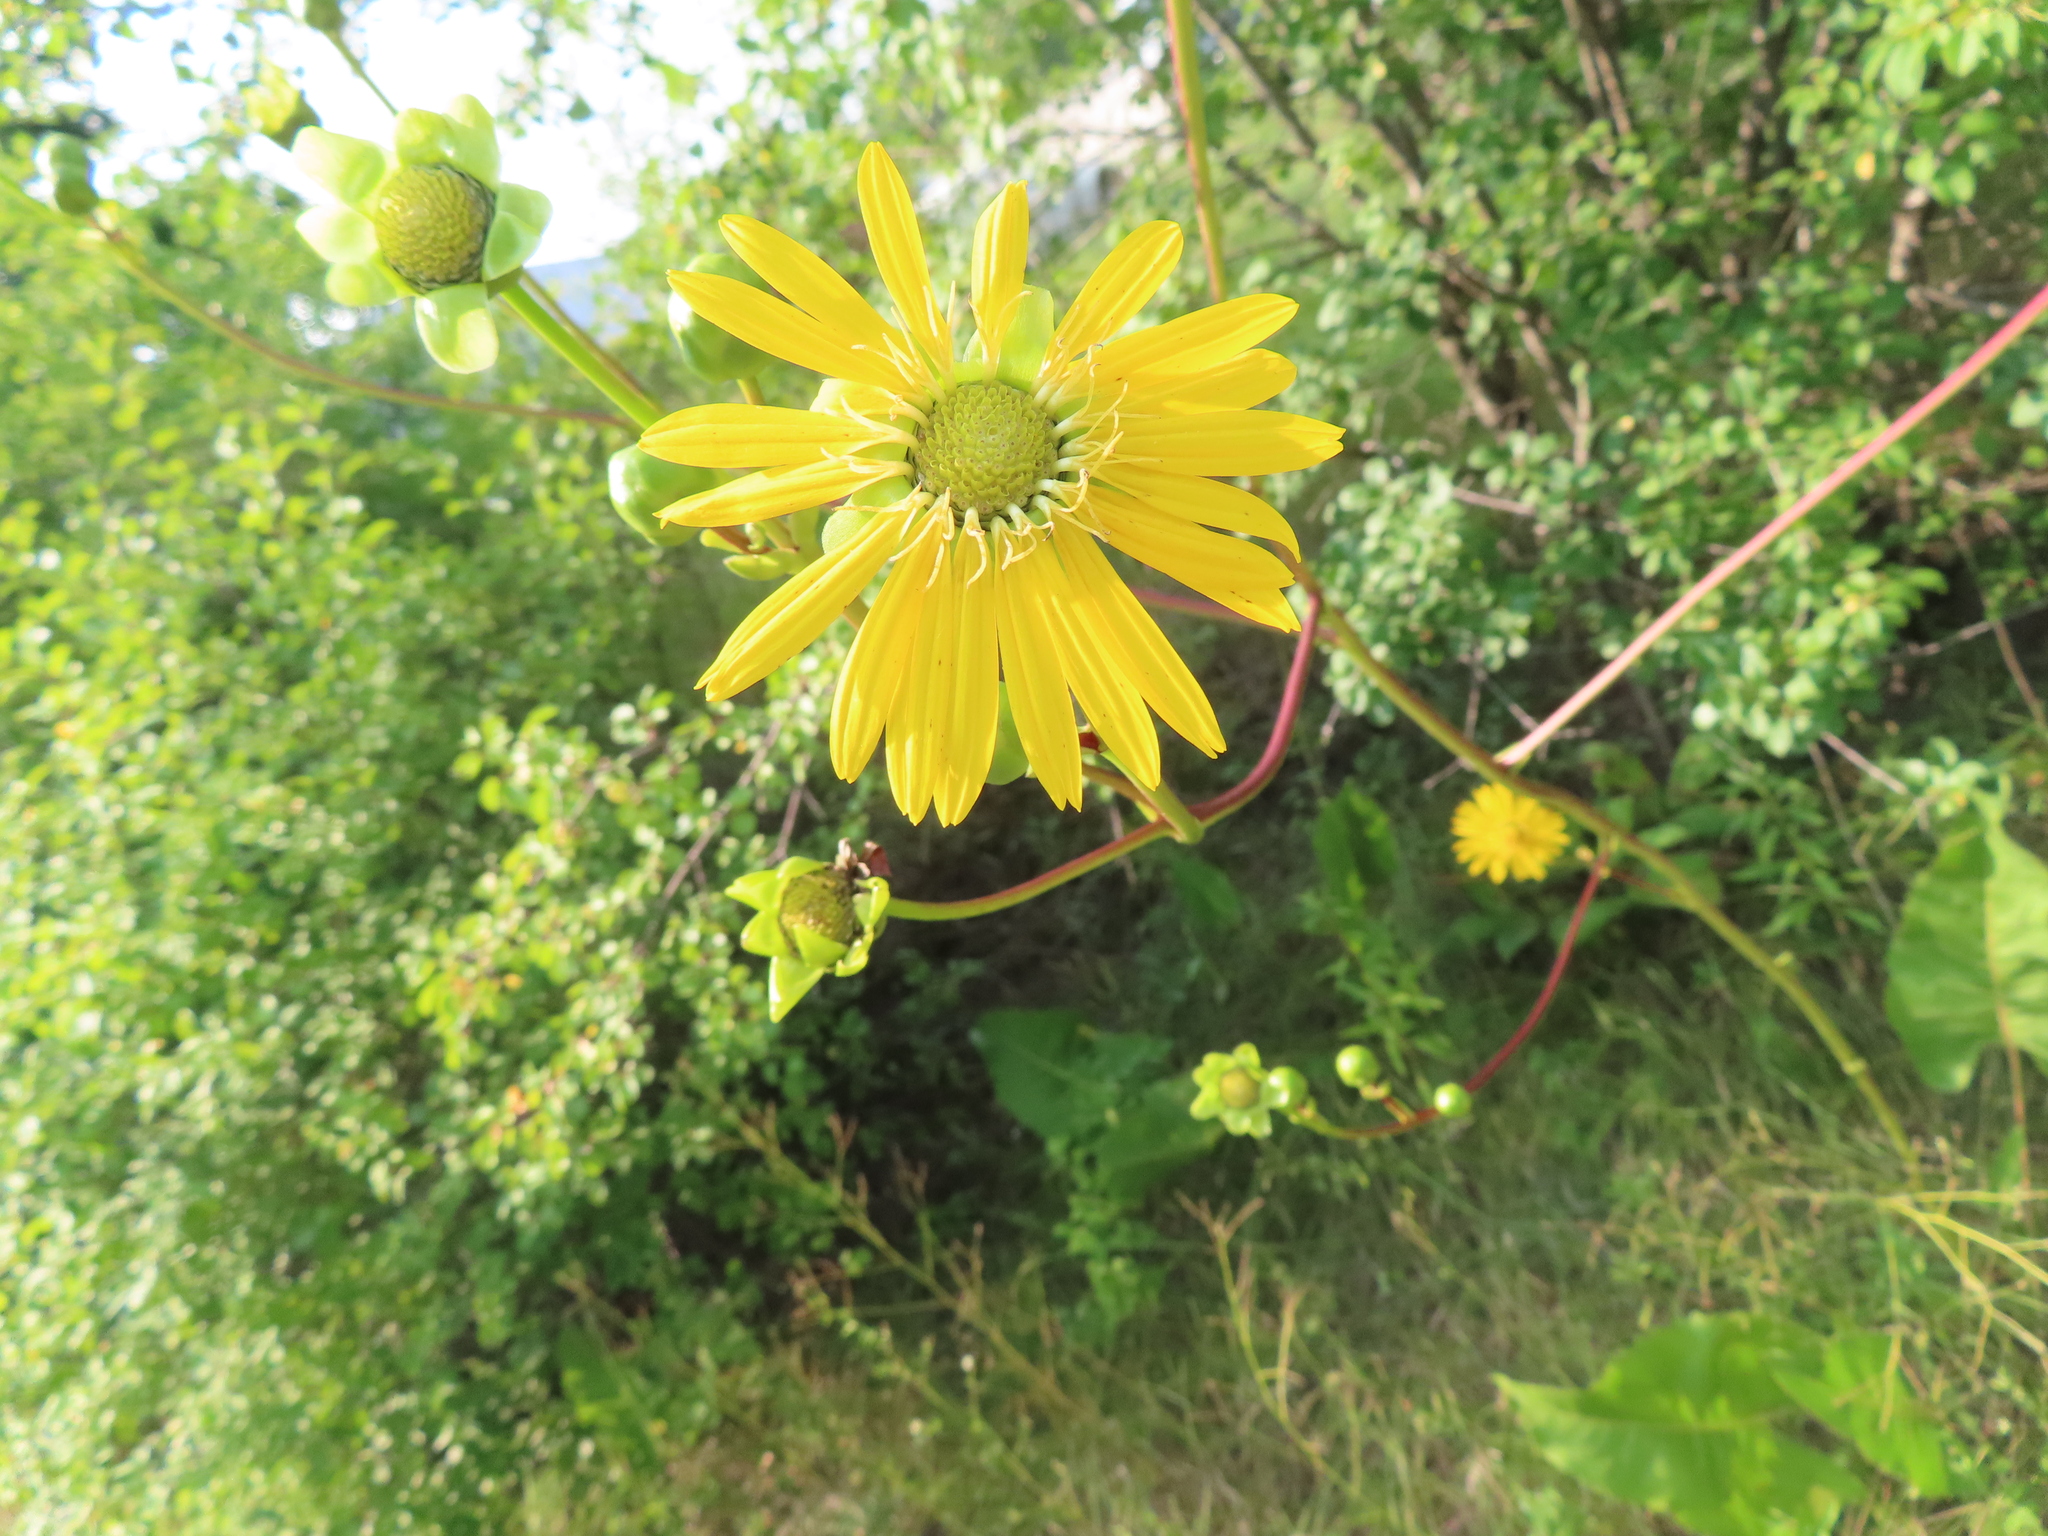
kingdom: Plantae
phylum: Tracheophyta
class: Magnoliopsida
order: Asterales
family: Asteraceae
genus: Silphium
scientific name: Silphium terebinthinaceum
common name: Basal-leaf rosinweed
